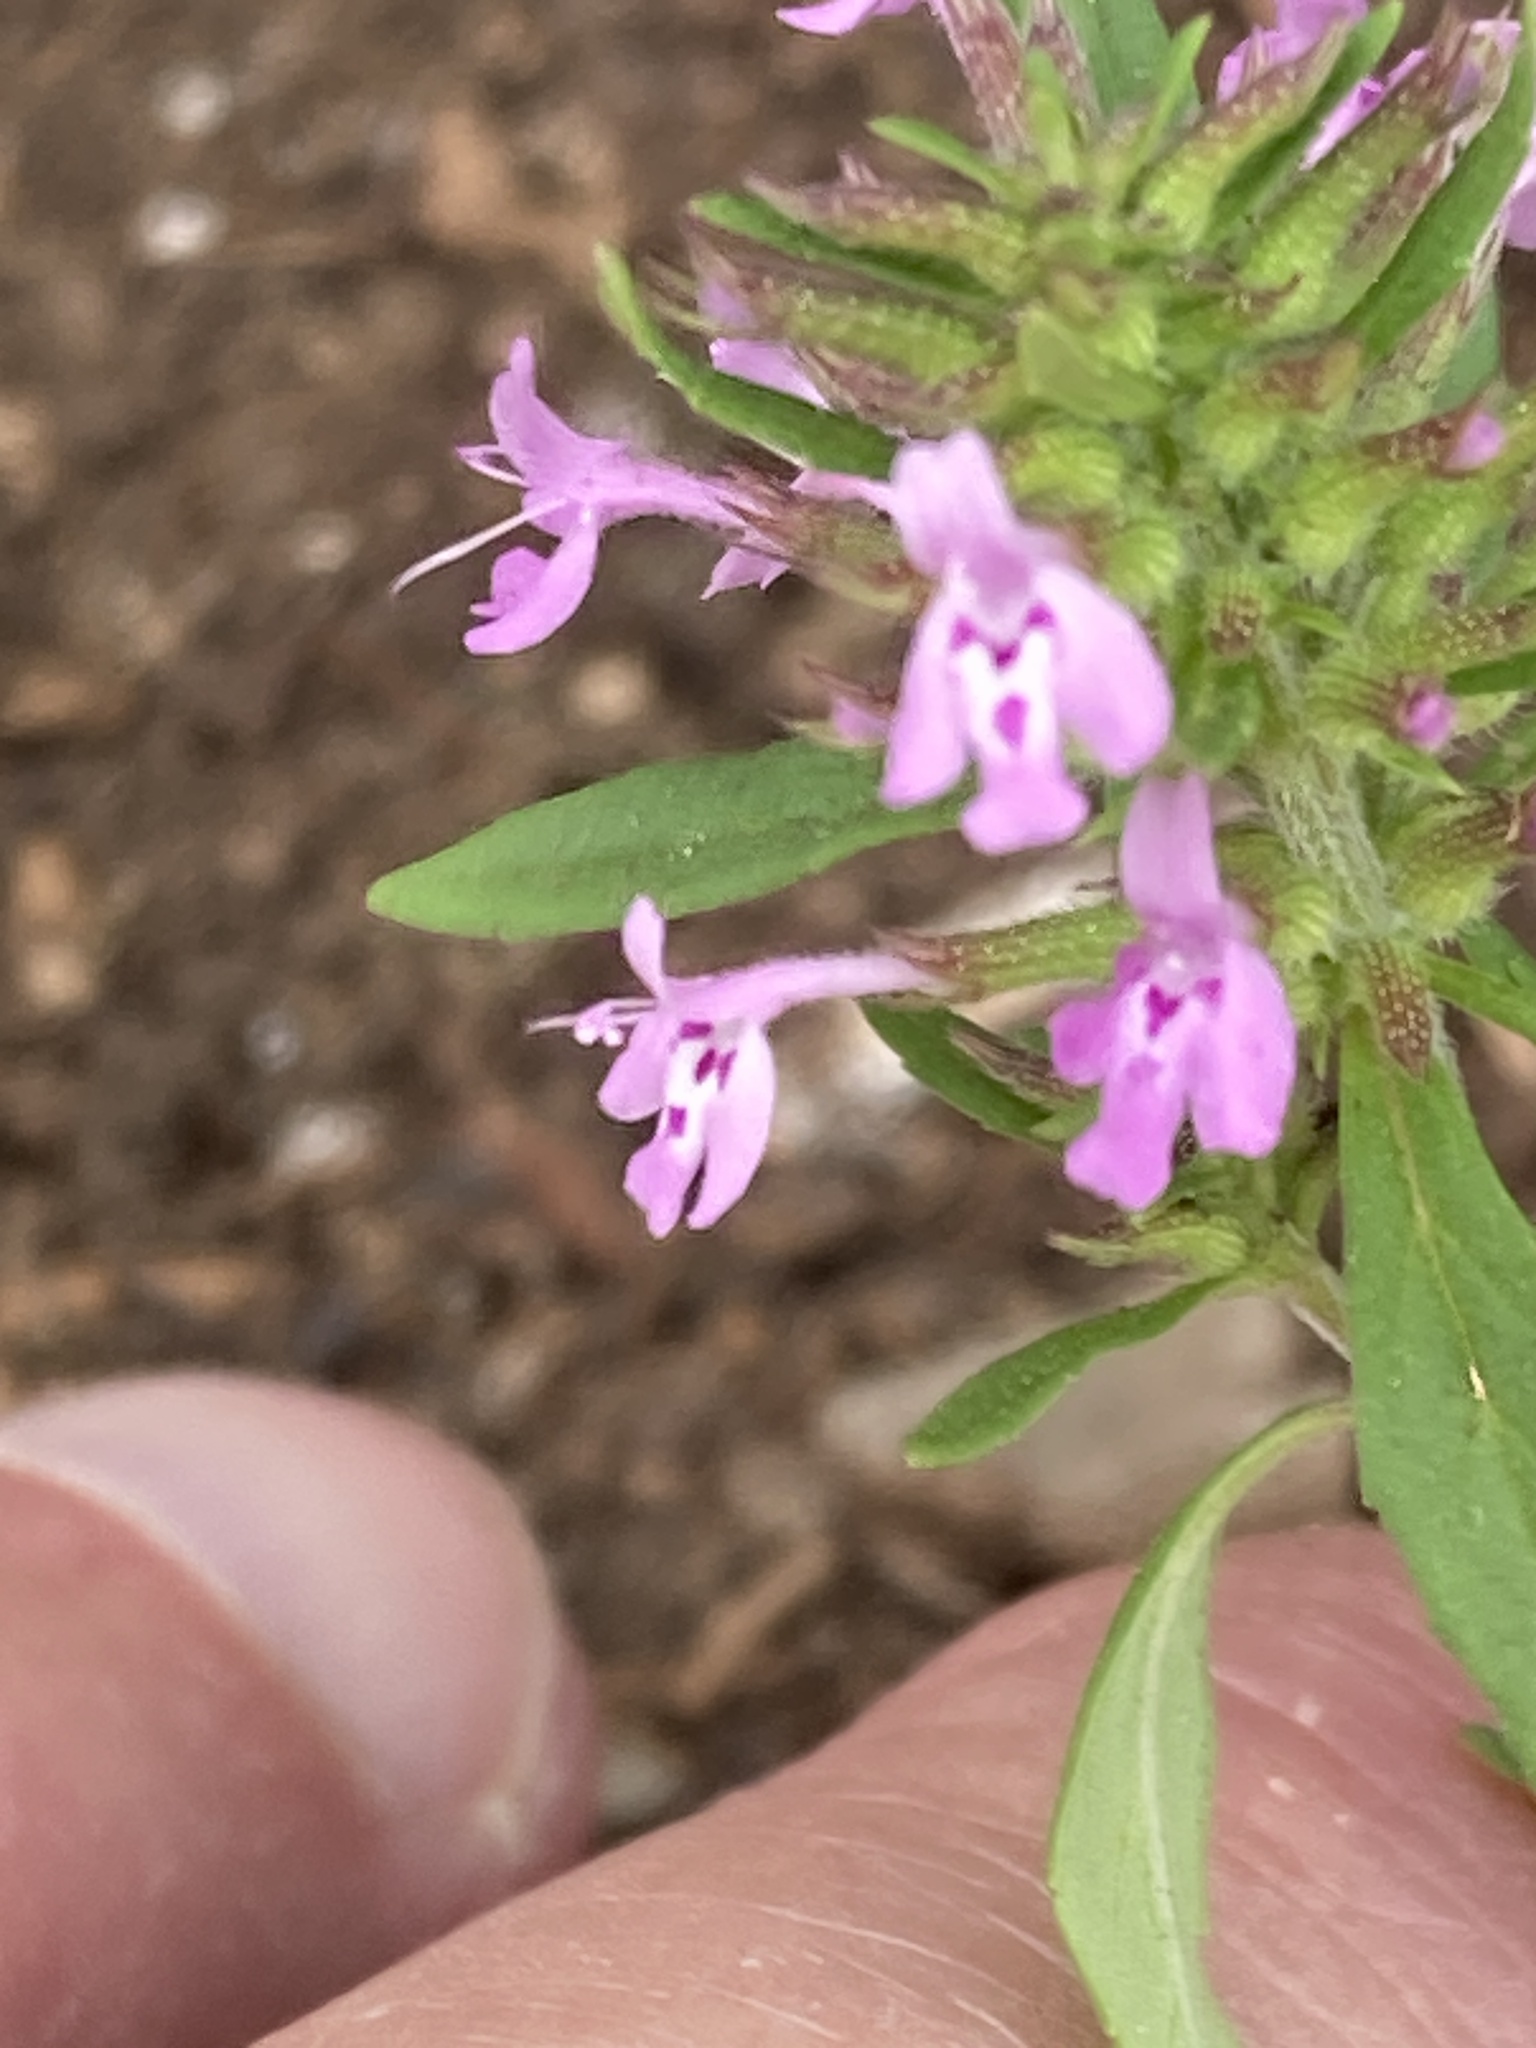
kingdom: Plantae
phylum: Tracheophyta
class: Magnoliopsida
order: Lamiales
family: Lamiaceae
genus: Hedeoma
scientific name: Hedeoma acinoides
